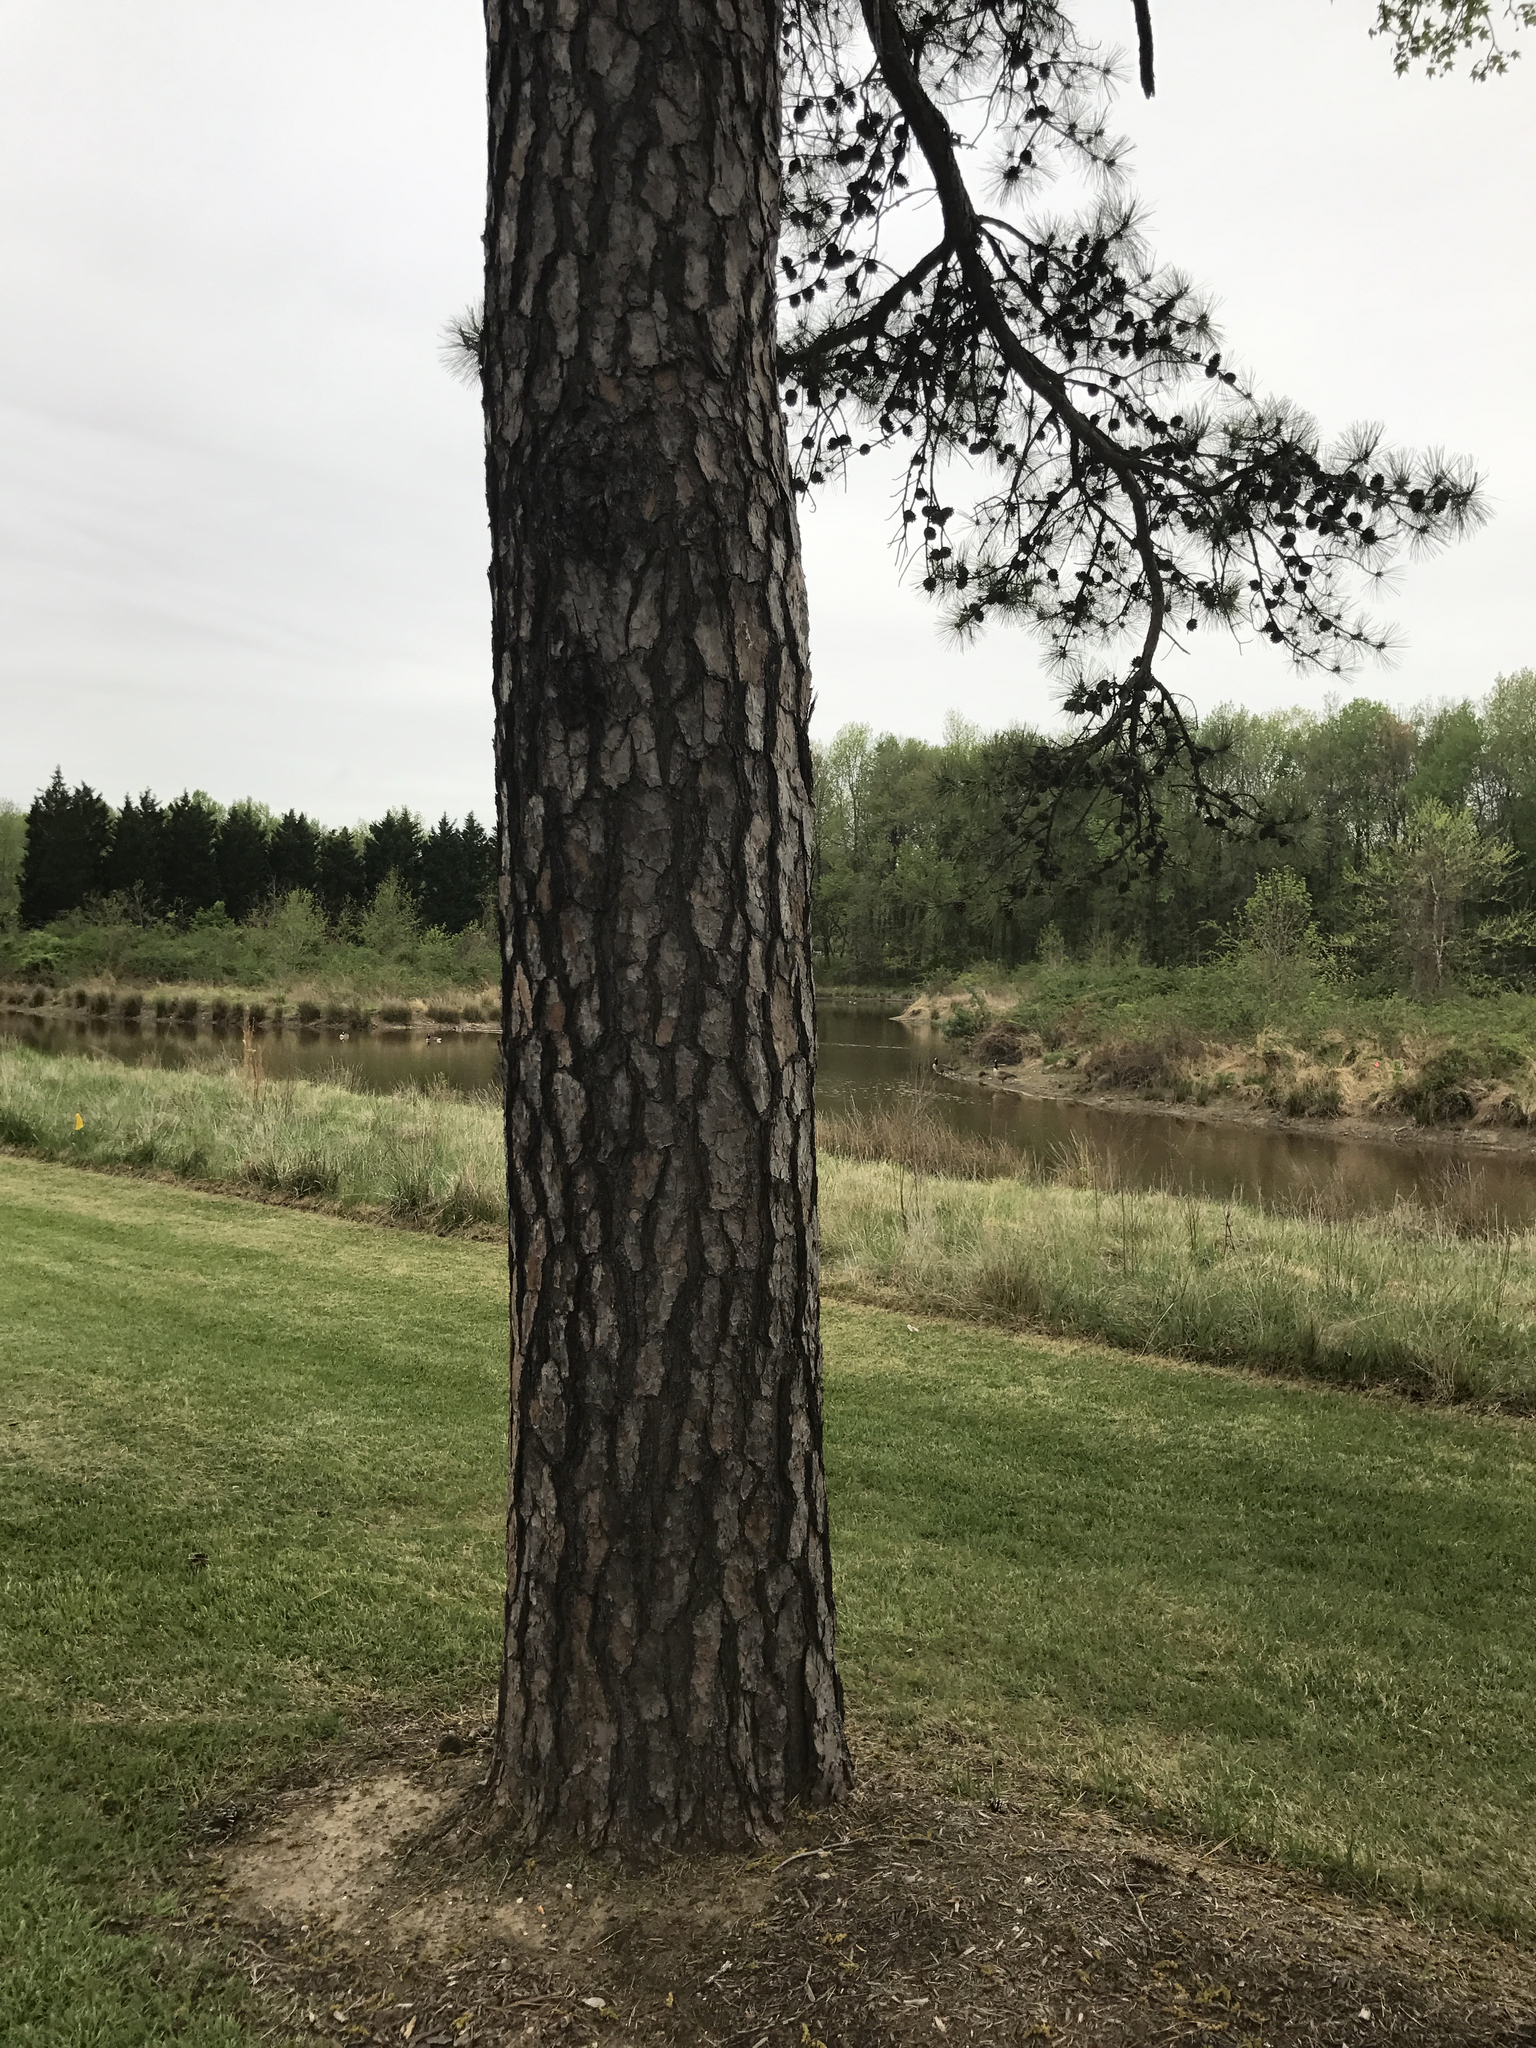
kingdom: Plantae
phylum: Tracheophyta
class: Pinopsida
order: Pinales
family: Pinaceae
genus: Pinus
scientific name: Pinus rigida
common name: Pitch pine
